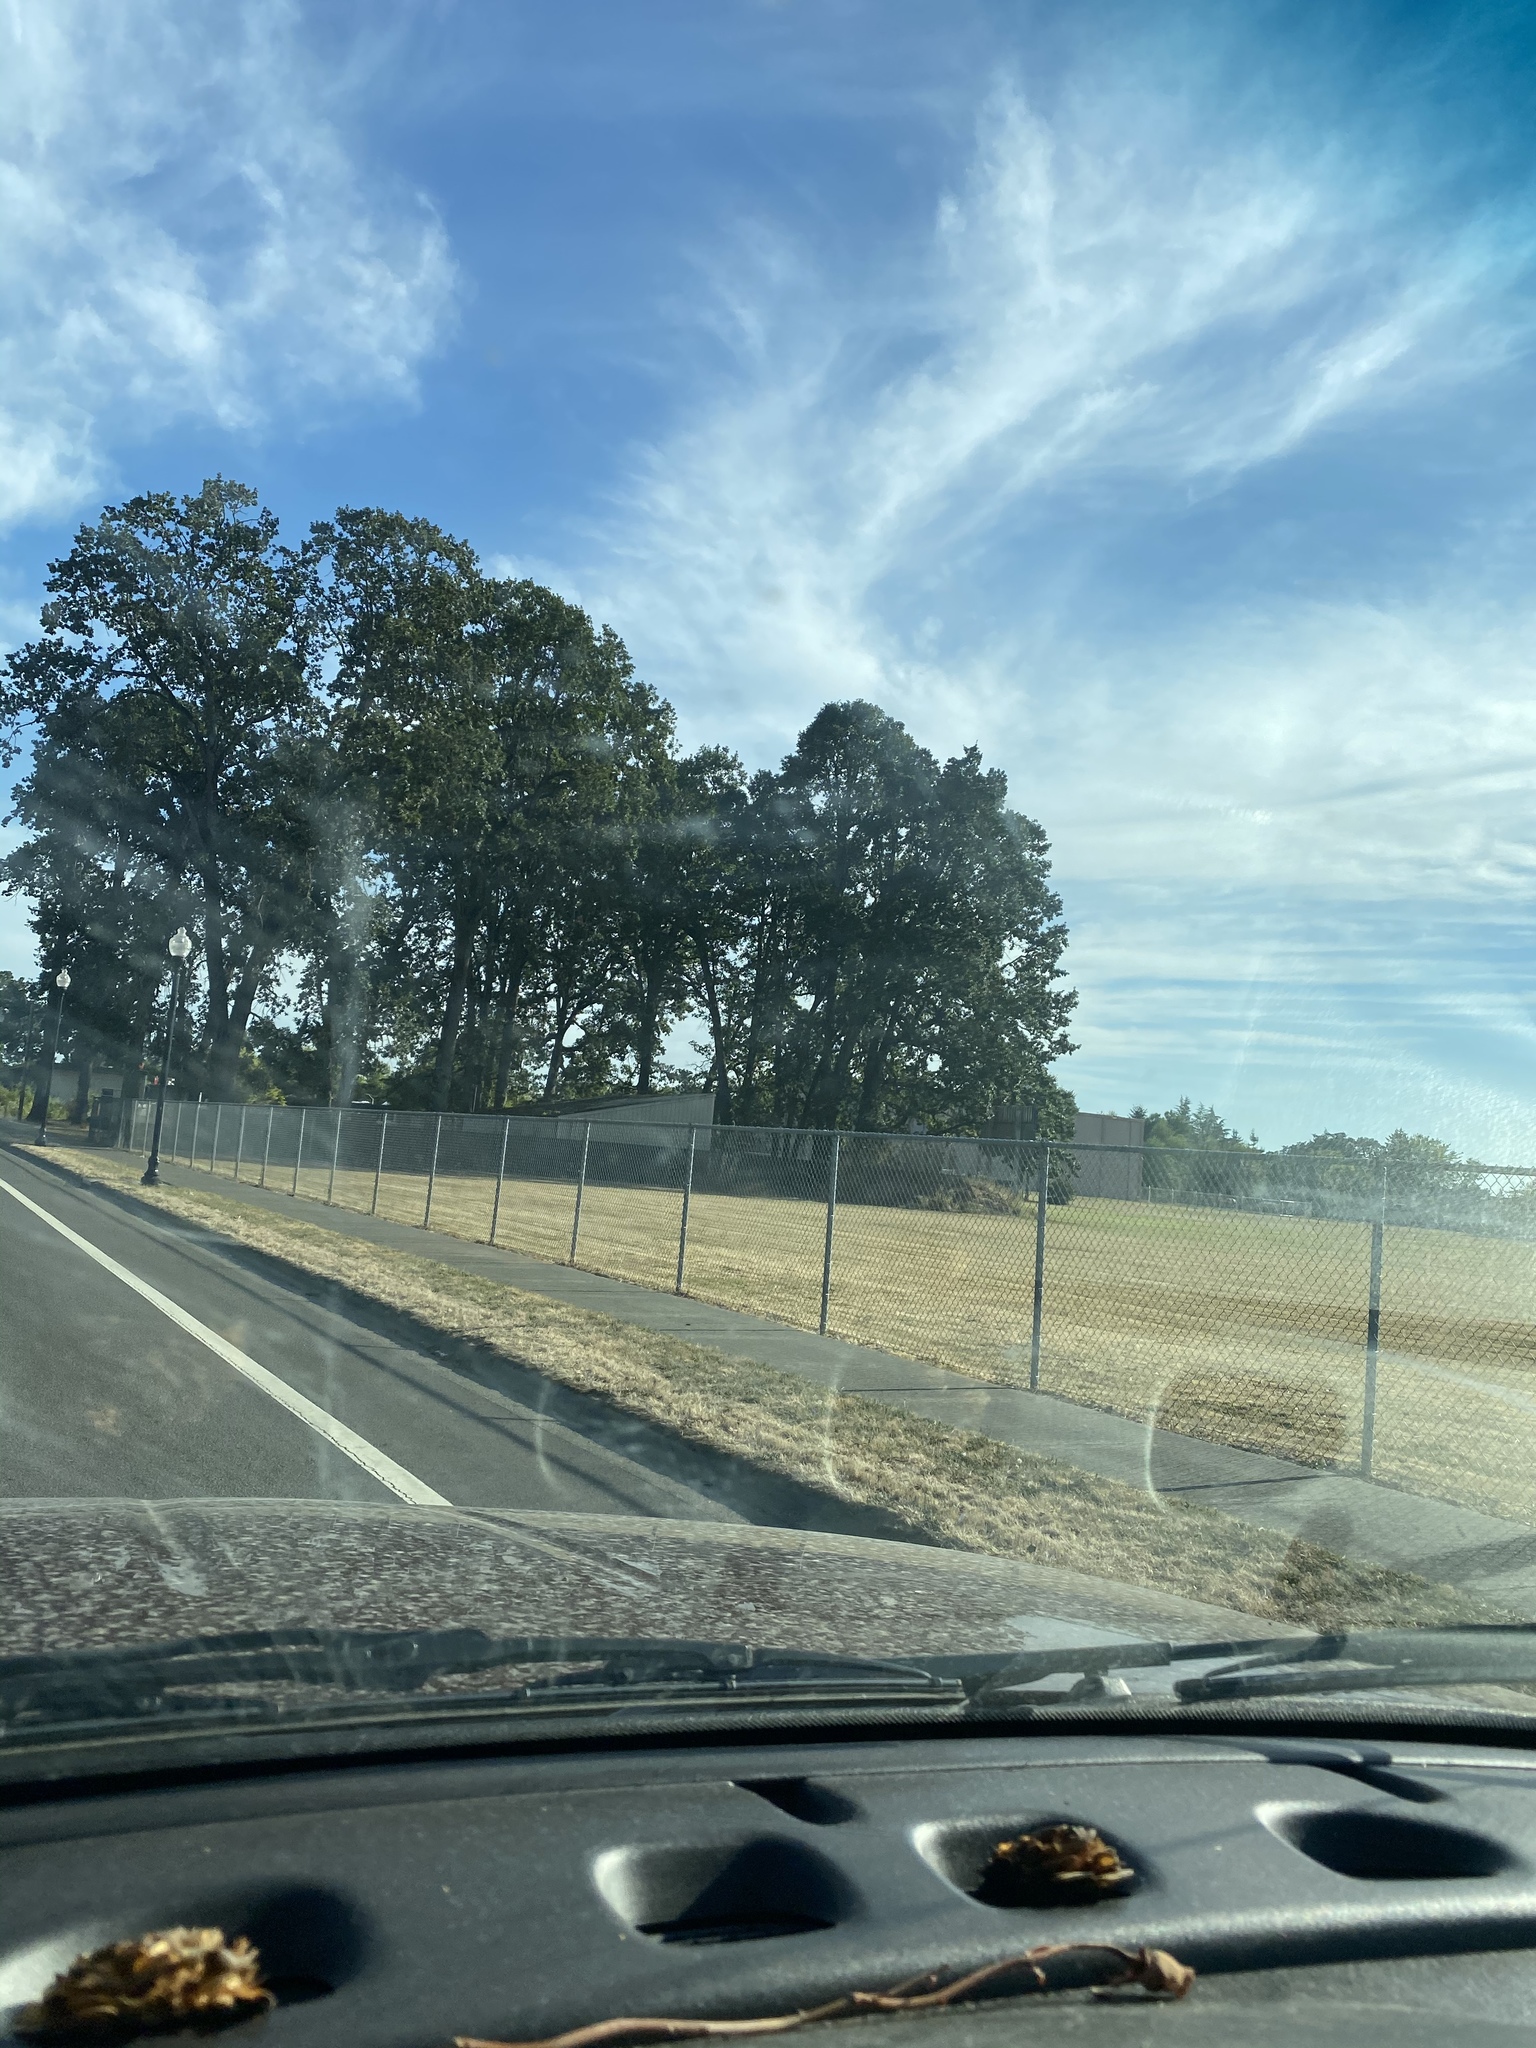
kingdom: Plantae
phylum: Tracheophyta
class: Magnoliopsida
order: Fagales
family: Fagaceae
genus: Quercus
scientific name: Quercus garryana
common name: Garry oak
